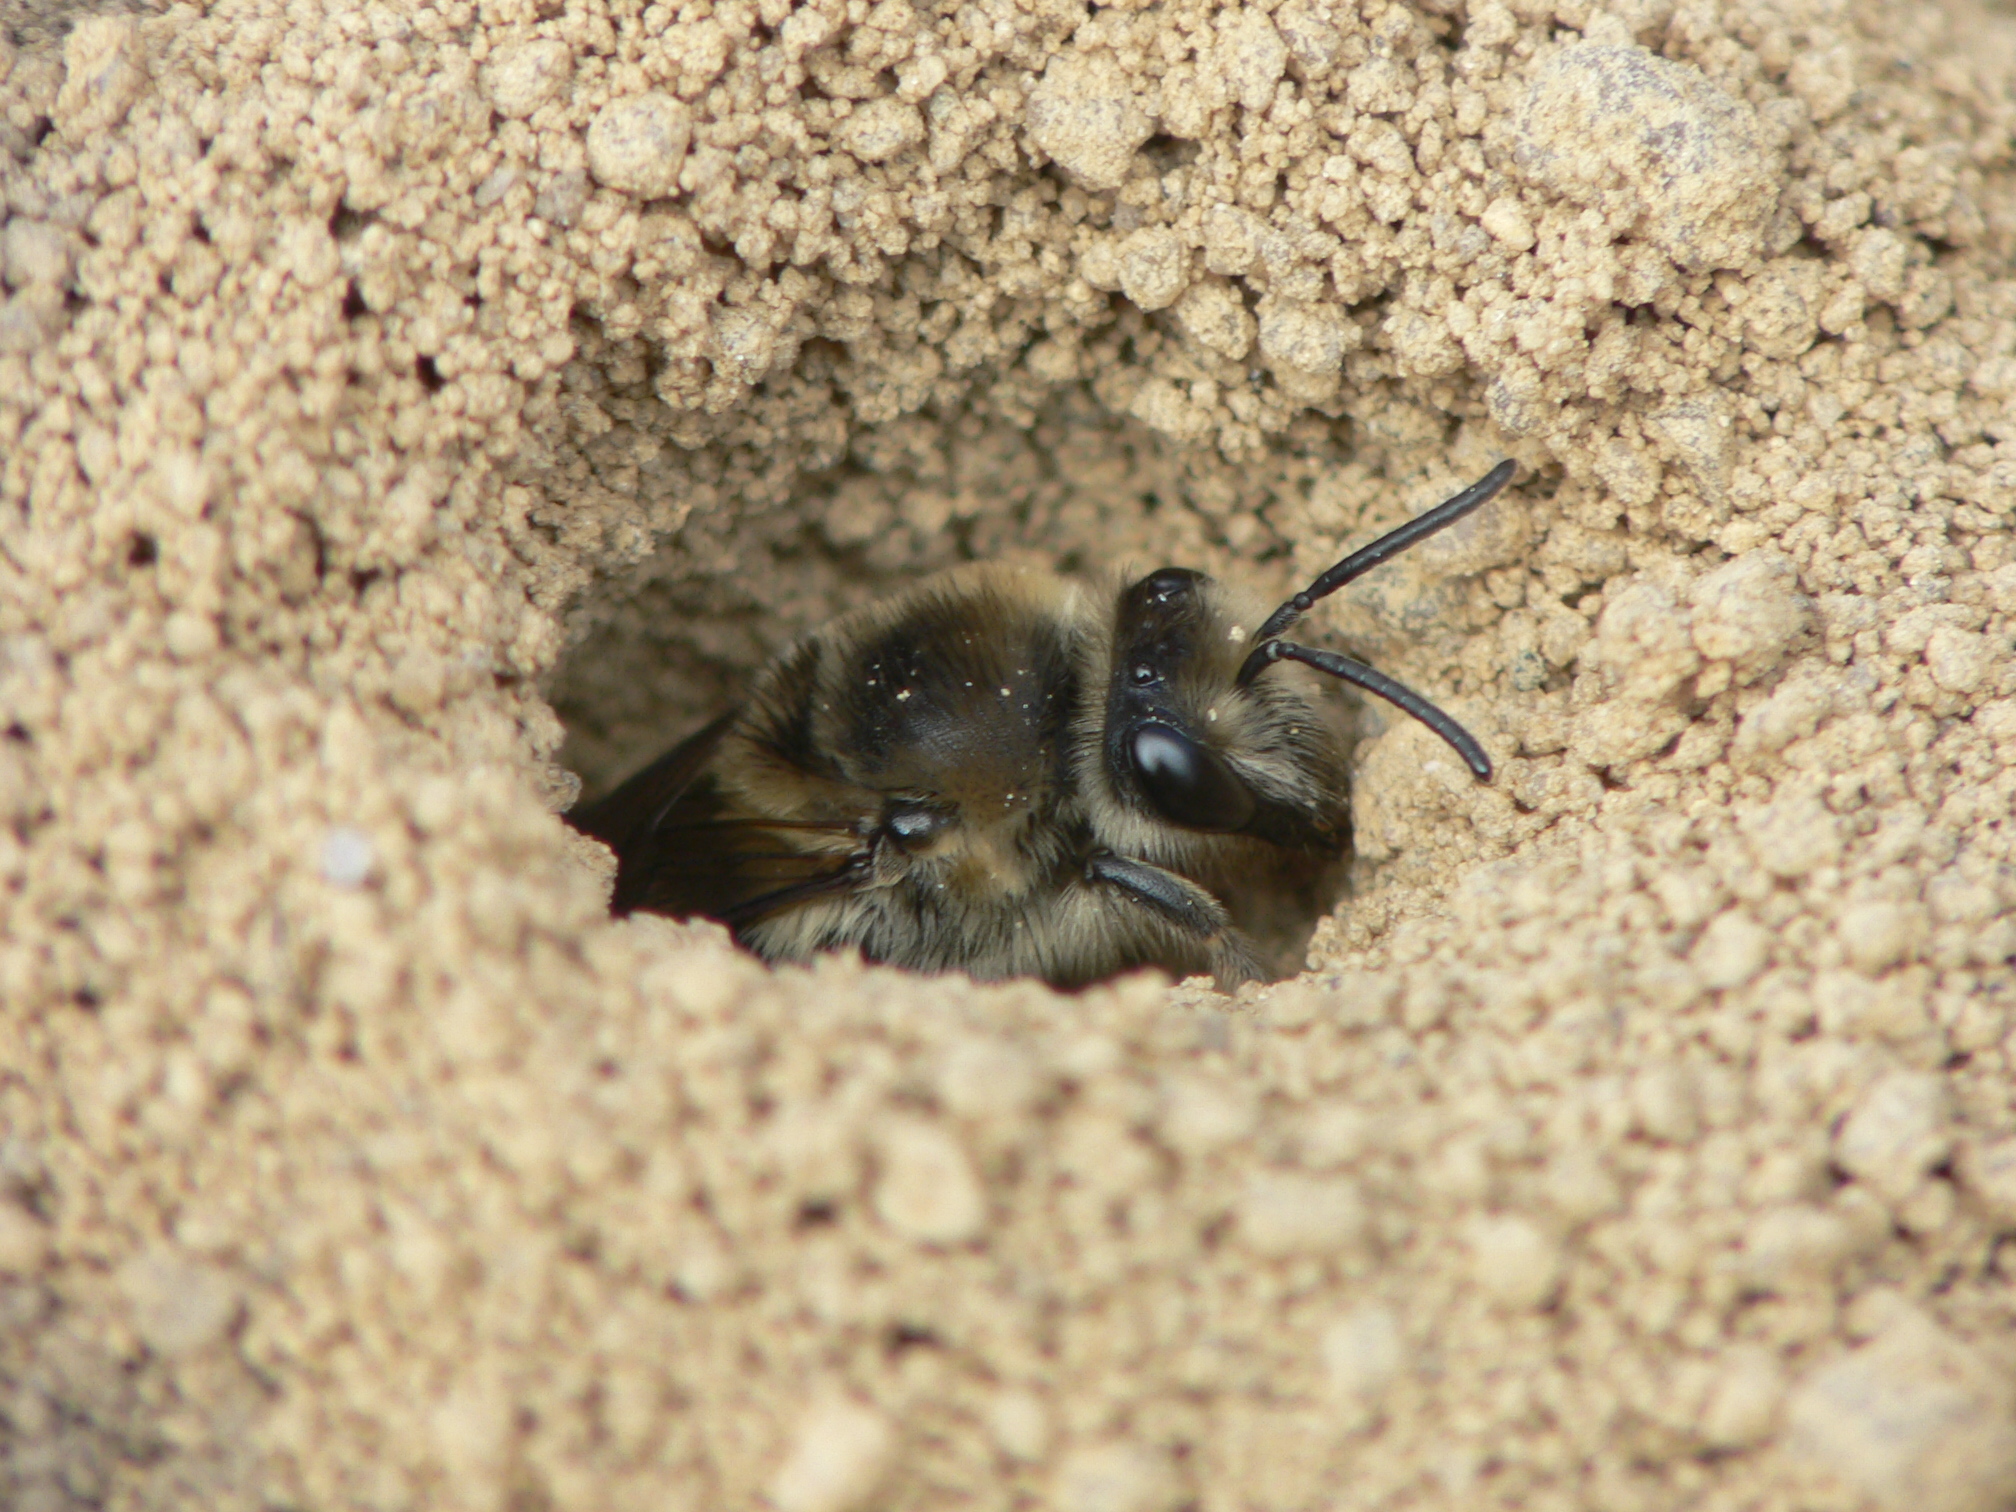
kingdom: Animalia
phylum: Arthropoda
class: Insecta
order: Hymenoptera
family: Colletidae
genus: Colletes
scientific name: Colletes validus
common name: Blueberry cellophane bee
